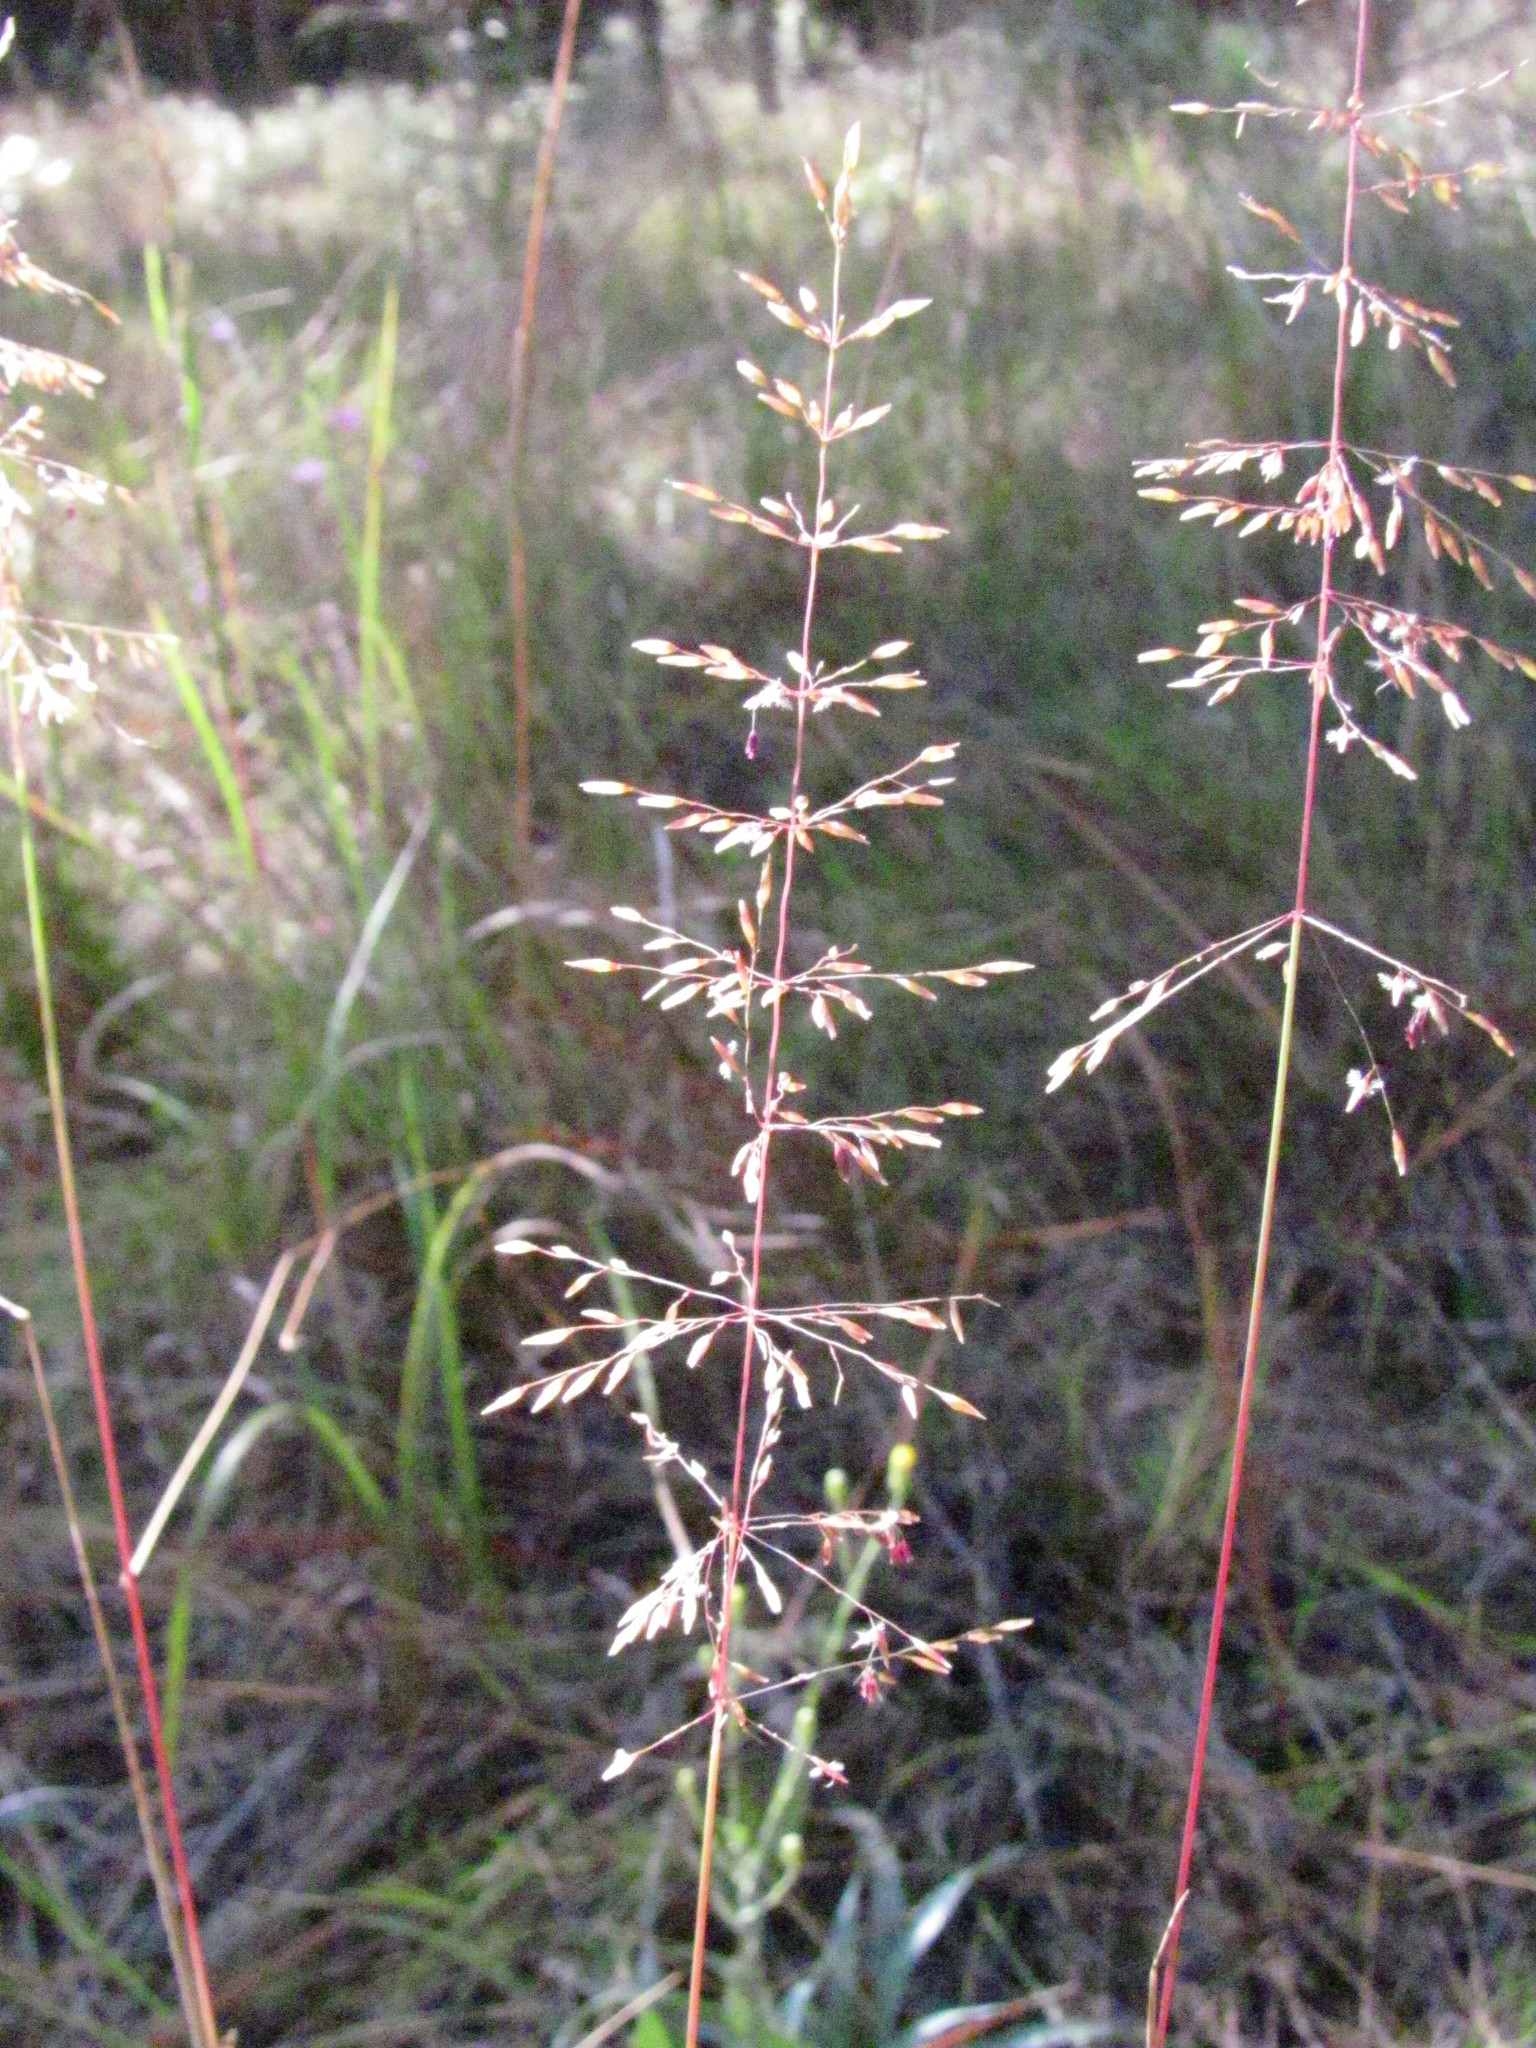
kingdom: Plantae
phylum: Tracheophyta
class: Liliopsida
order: Poales
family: Poaceae
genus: Sporobolus
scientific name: Sporobolus junceus
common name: Lizard grass
